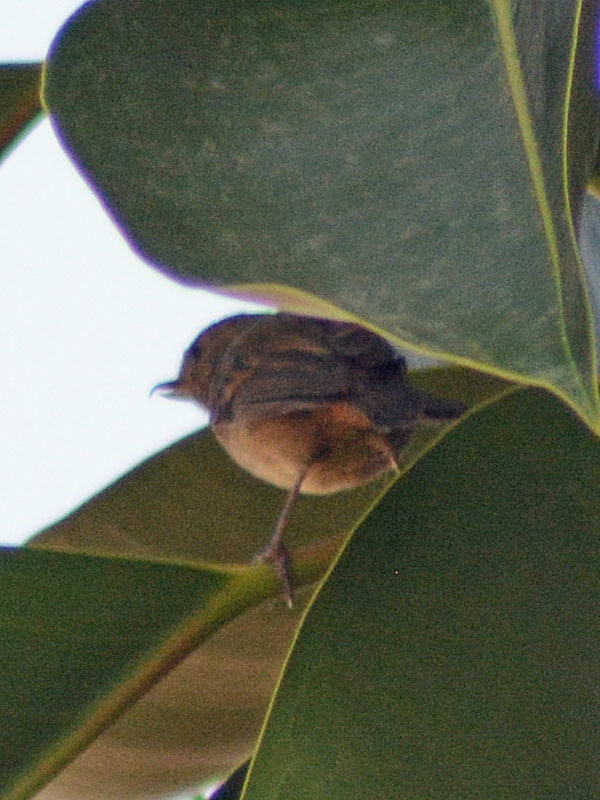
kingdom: Animalia
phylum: Chordata
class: Aves
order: Passeriformes
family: Thraupidae
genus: Diglossa
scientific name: Diglossa baritula
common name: Cinnamon-bellied flowerpiercer
